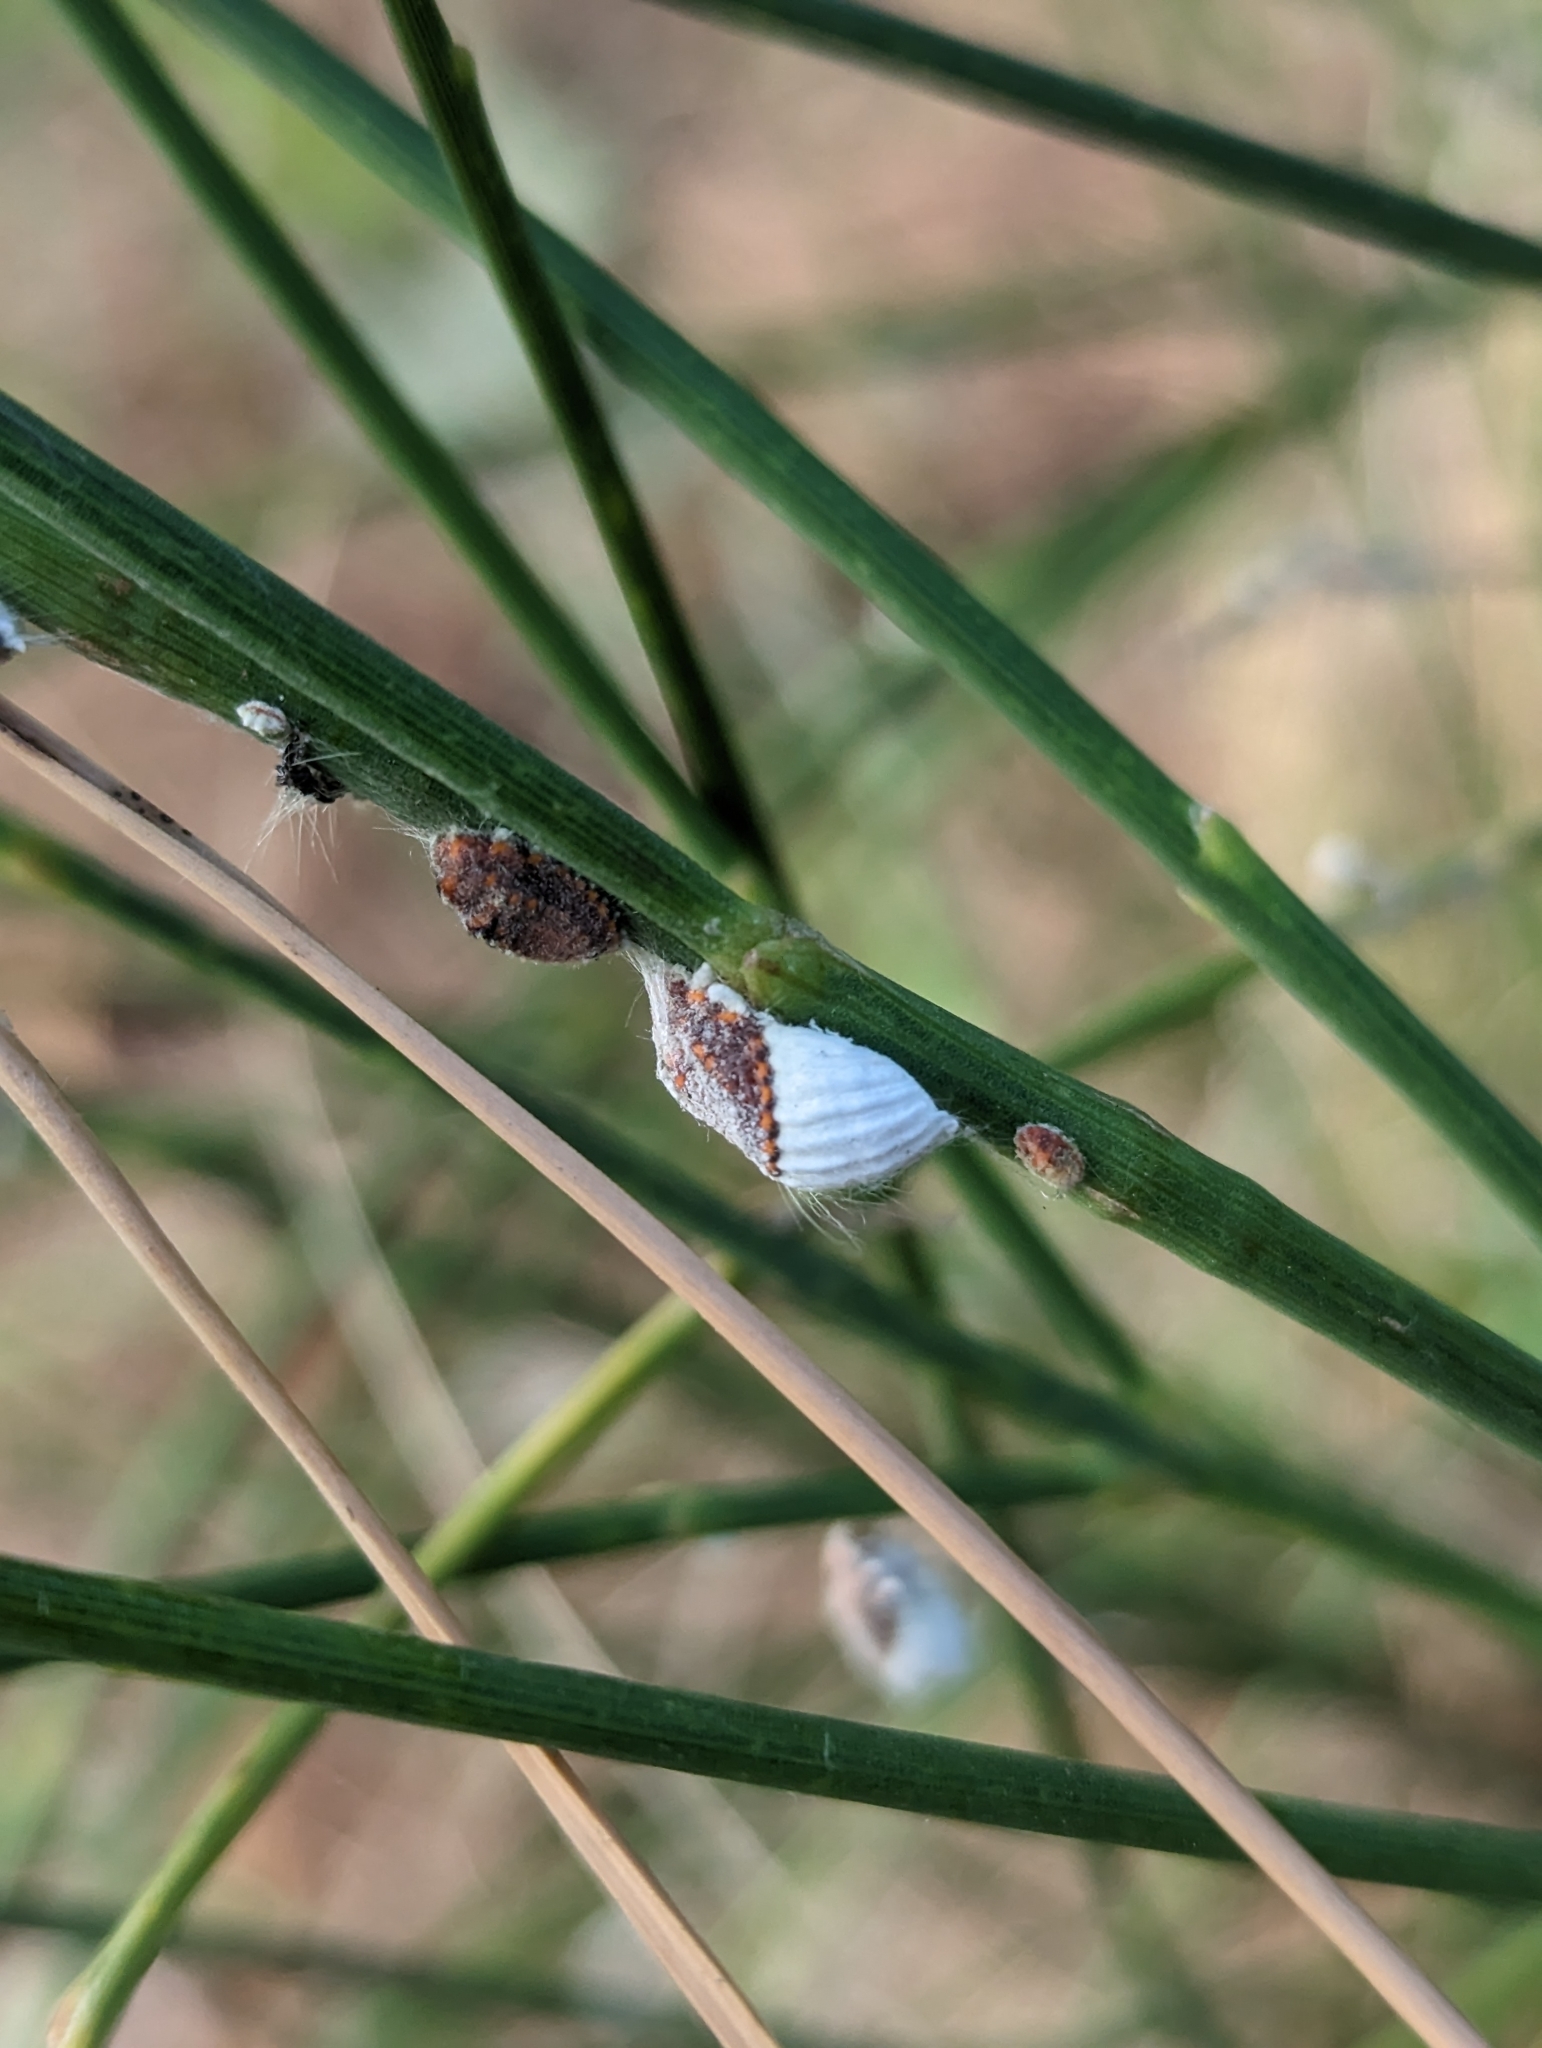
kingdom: Animalia
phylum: Arthropoda
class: Insecta
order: Hemiptera
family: Margarodidae
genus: Icerya
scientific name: Icerya purchasi
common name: Cottony cushion scale
